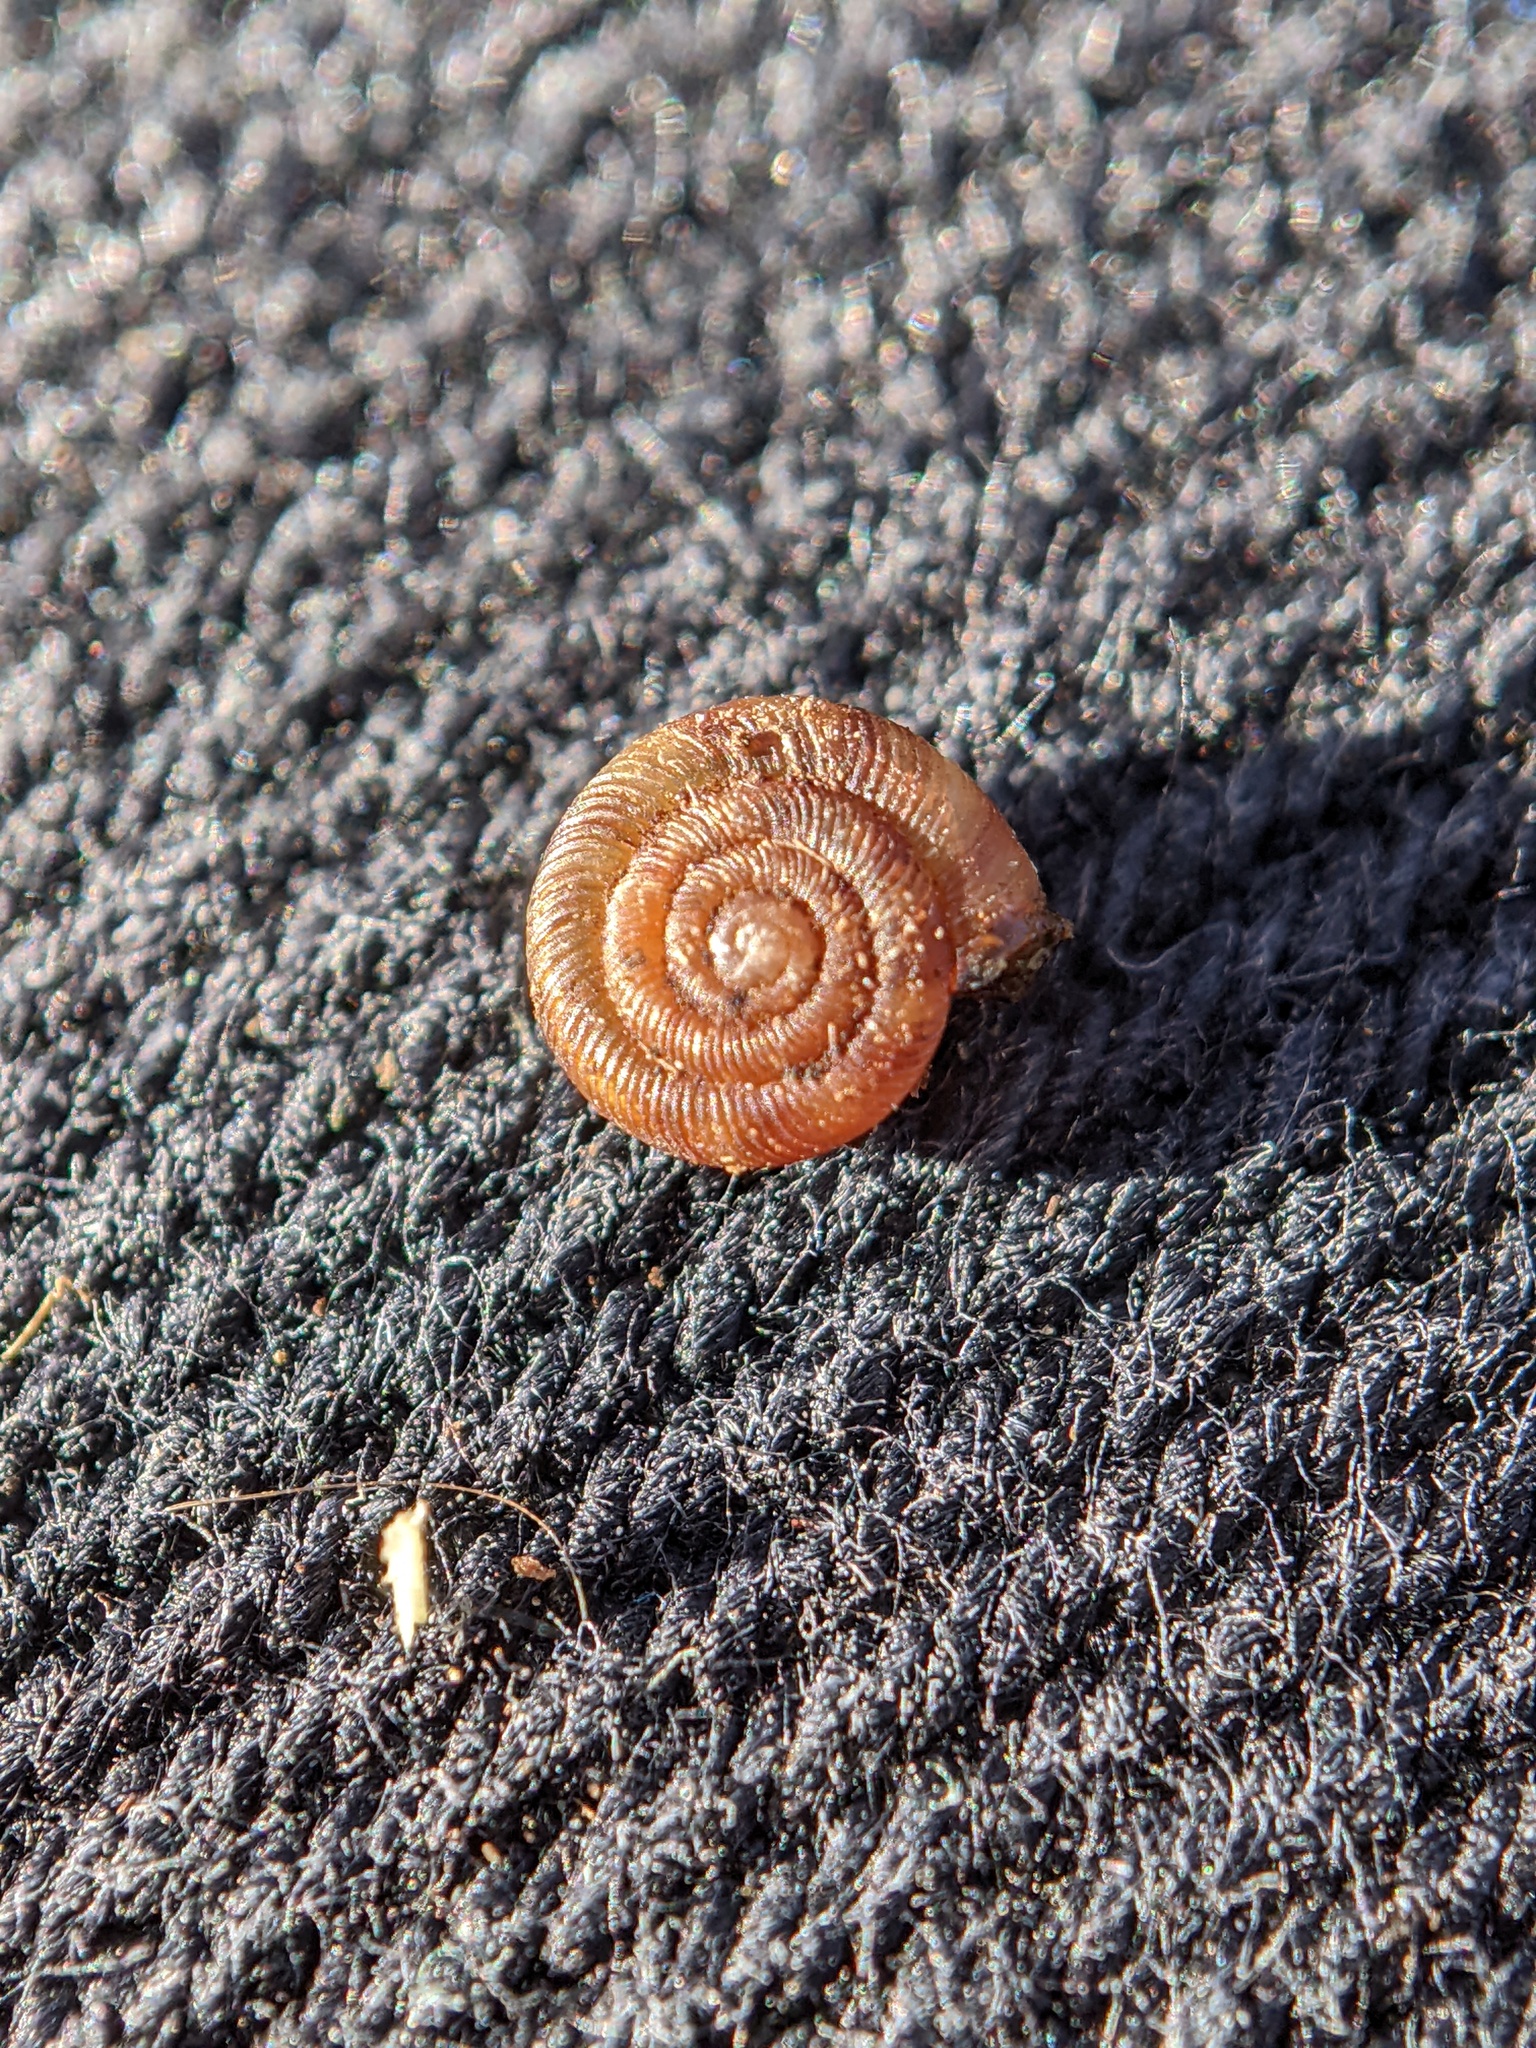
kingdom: Animalia
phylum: Mollusca
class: Gastropoda
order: Stylommatophora
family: Discidae
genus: Discus
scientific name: Discus rotundatus
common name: Rounded snail
